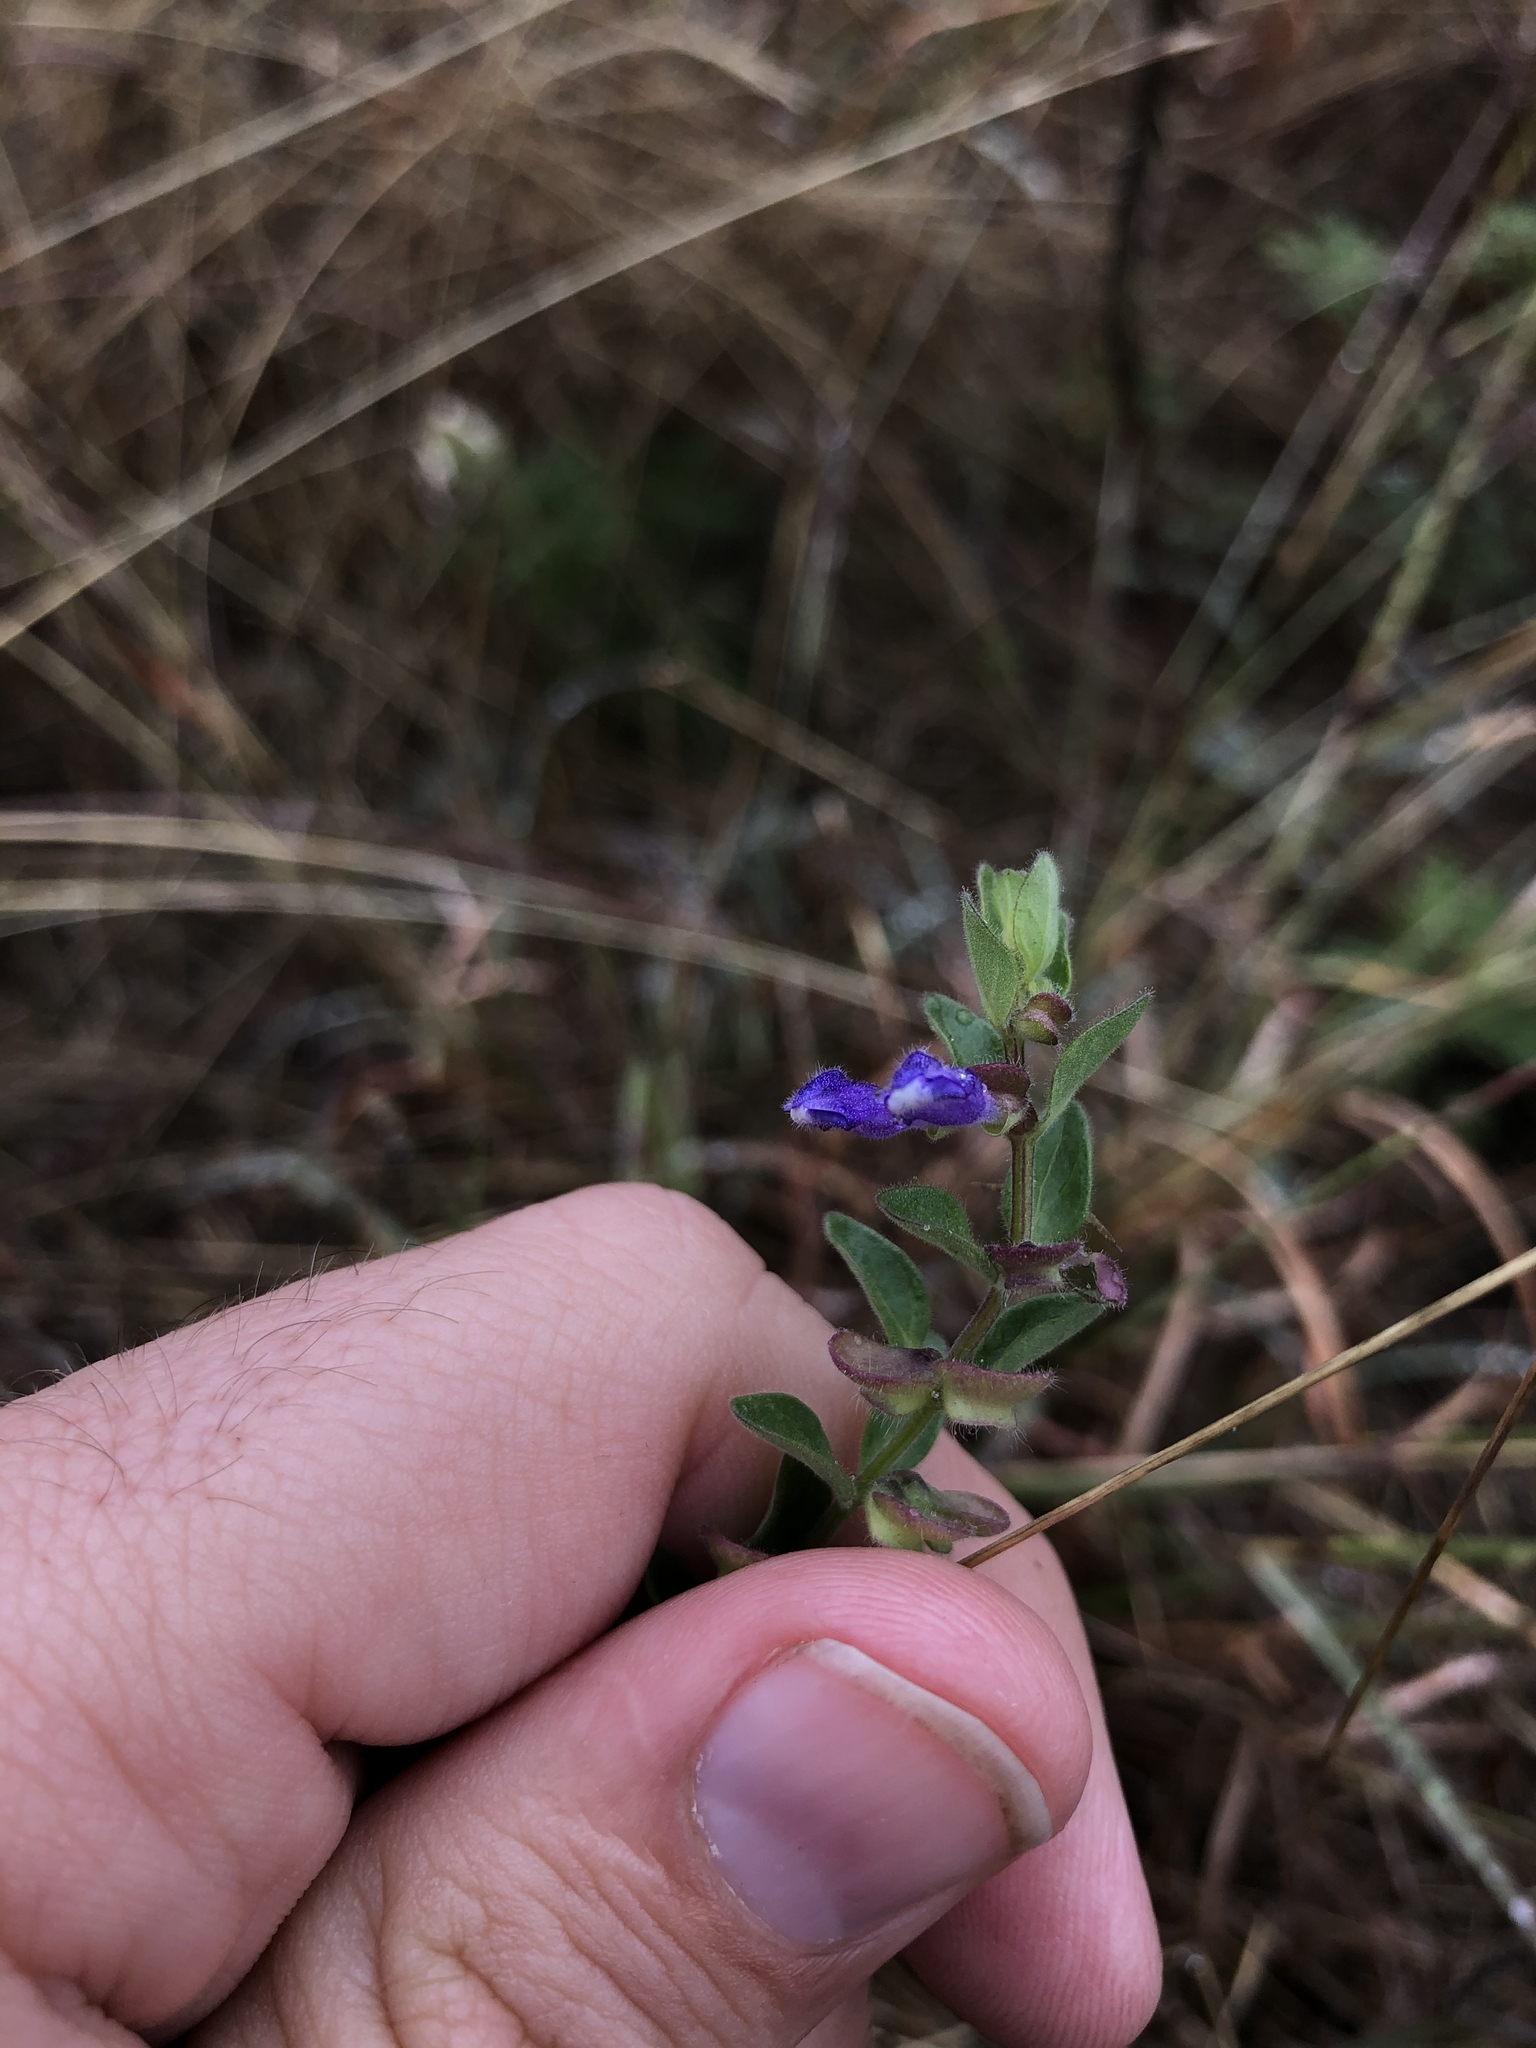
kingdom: Plantae
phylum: Tracheophyta
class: Magnoliopsida
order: Lamiales
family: Lamiaceae
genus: Scutellaria
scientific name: Scutellaria drummondii
